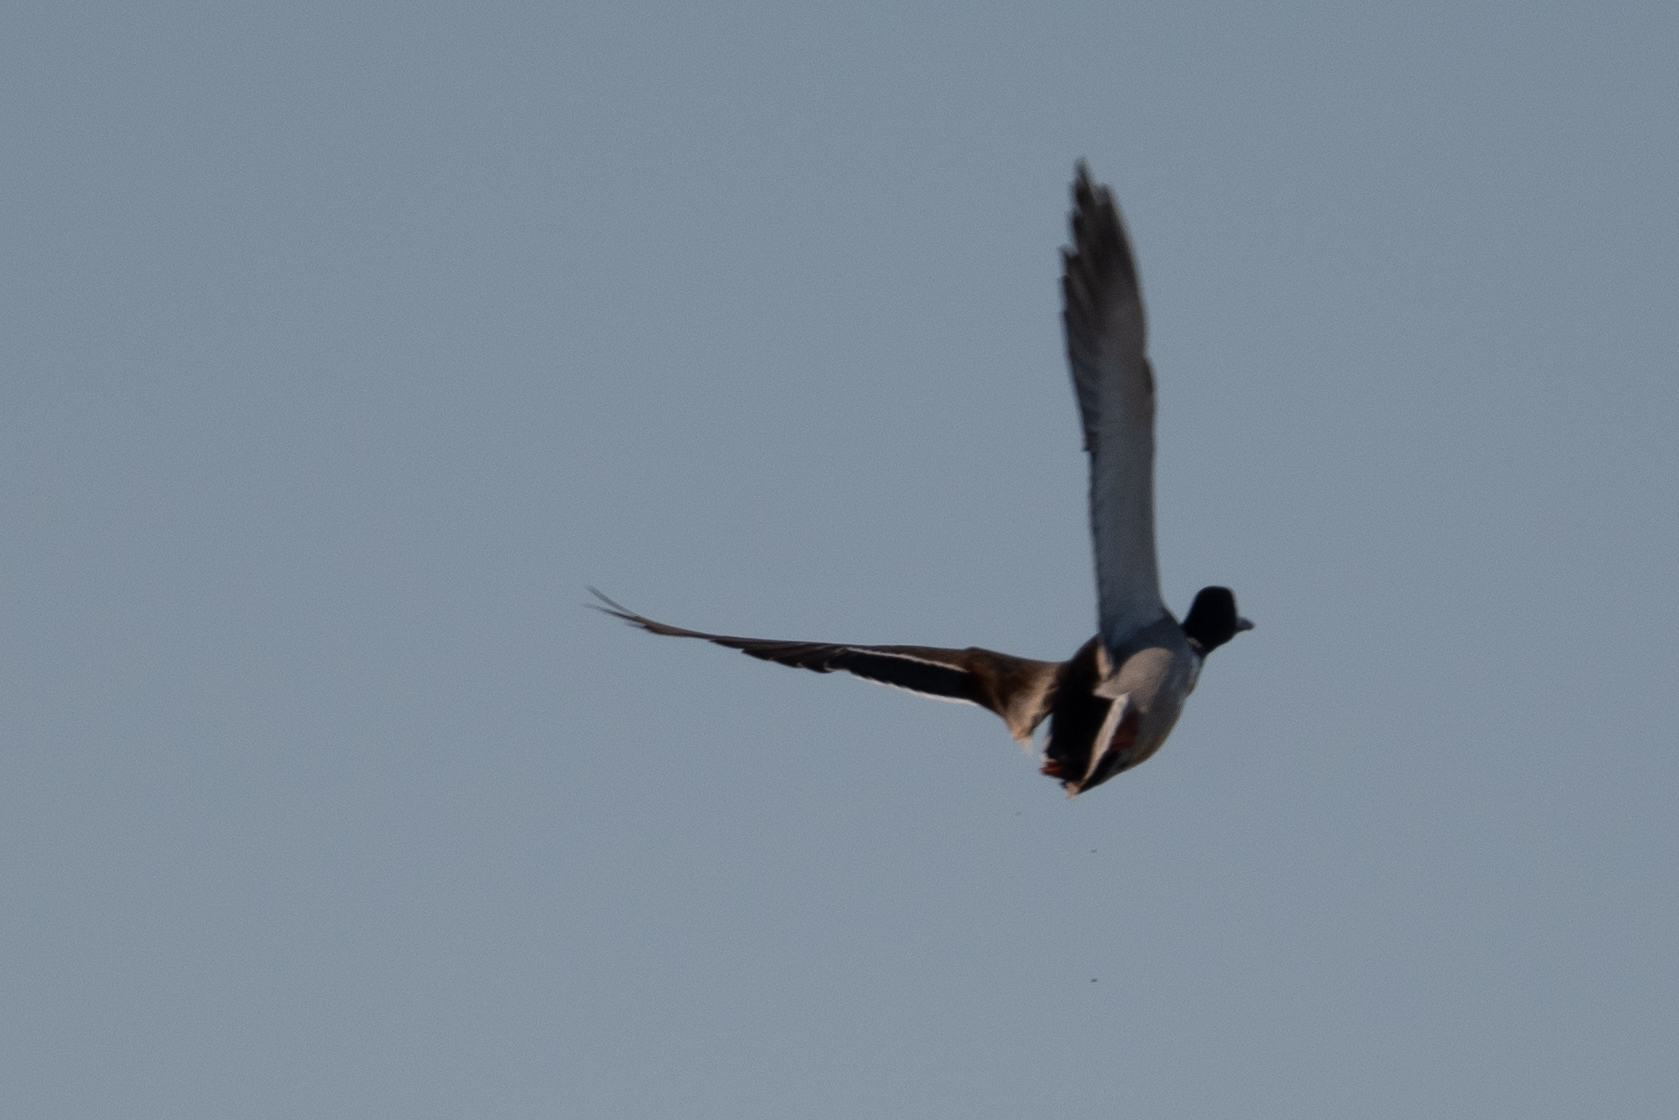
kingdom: Animalia
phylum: Chordata
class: Aves
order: Anseriformes
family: Anatidae
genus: Anas
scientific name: Anas platyrhynchos
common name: Mallard
